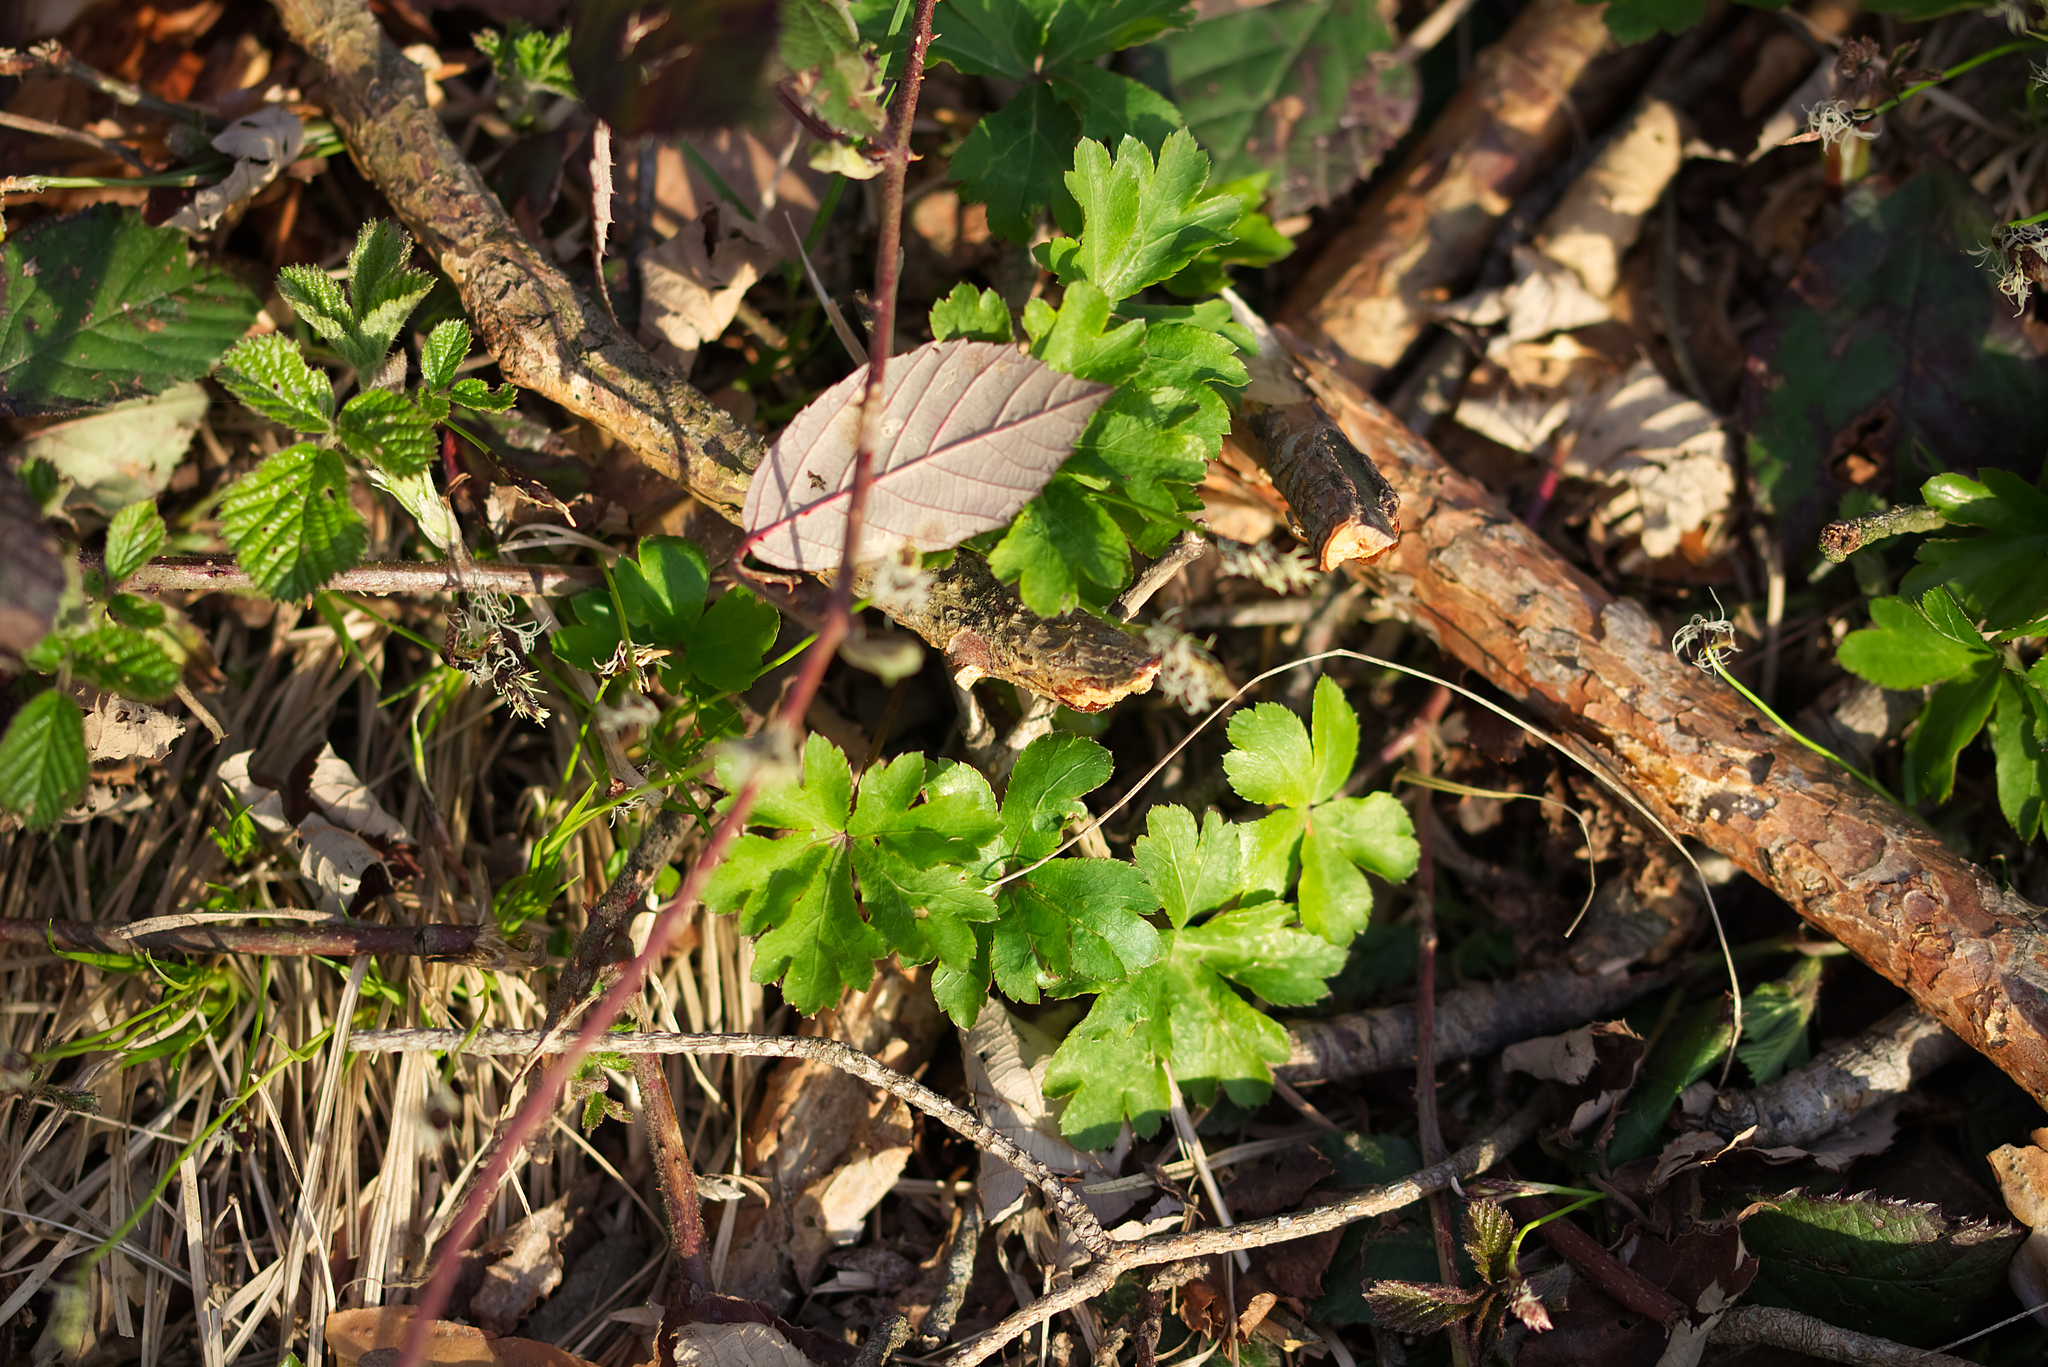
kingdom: Plantae
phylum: Tracheophyta
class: Magnoliopsida
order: Apiales
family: Apiaceae
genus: Sanicula
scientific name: Sanicula europaea
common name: Sanicle
